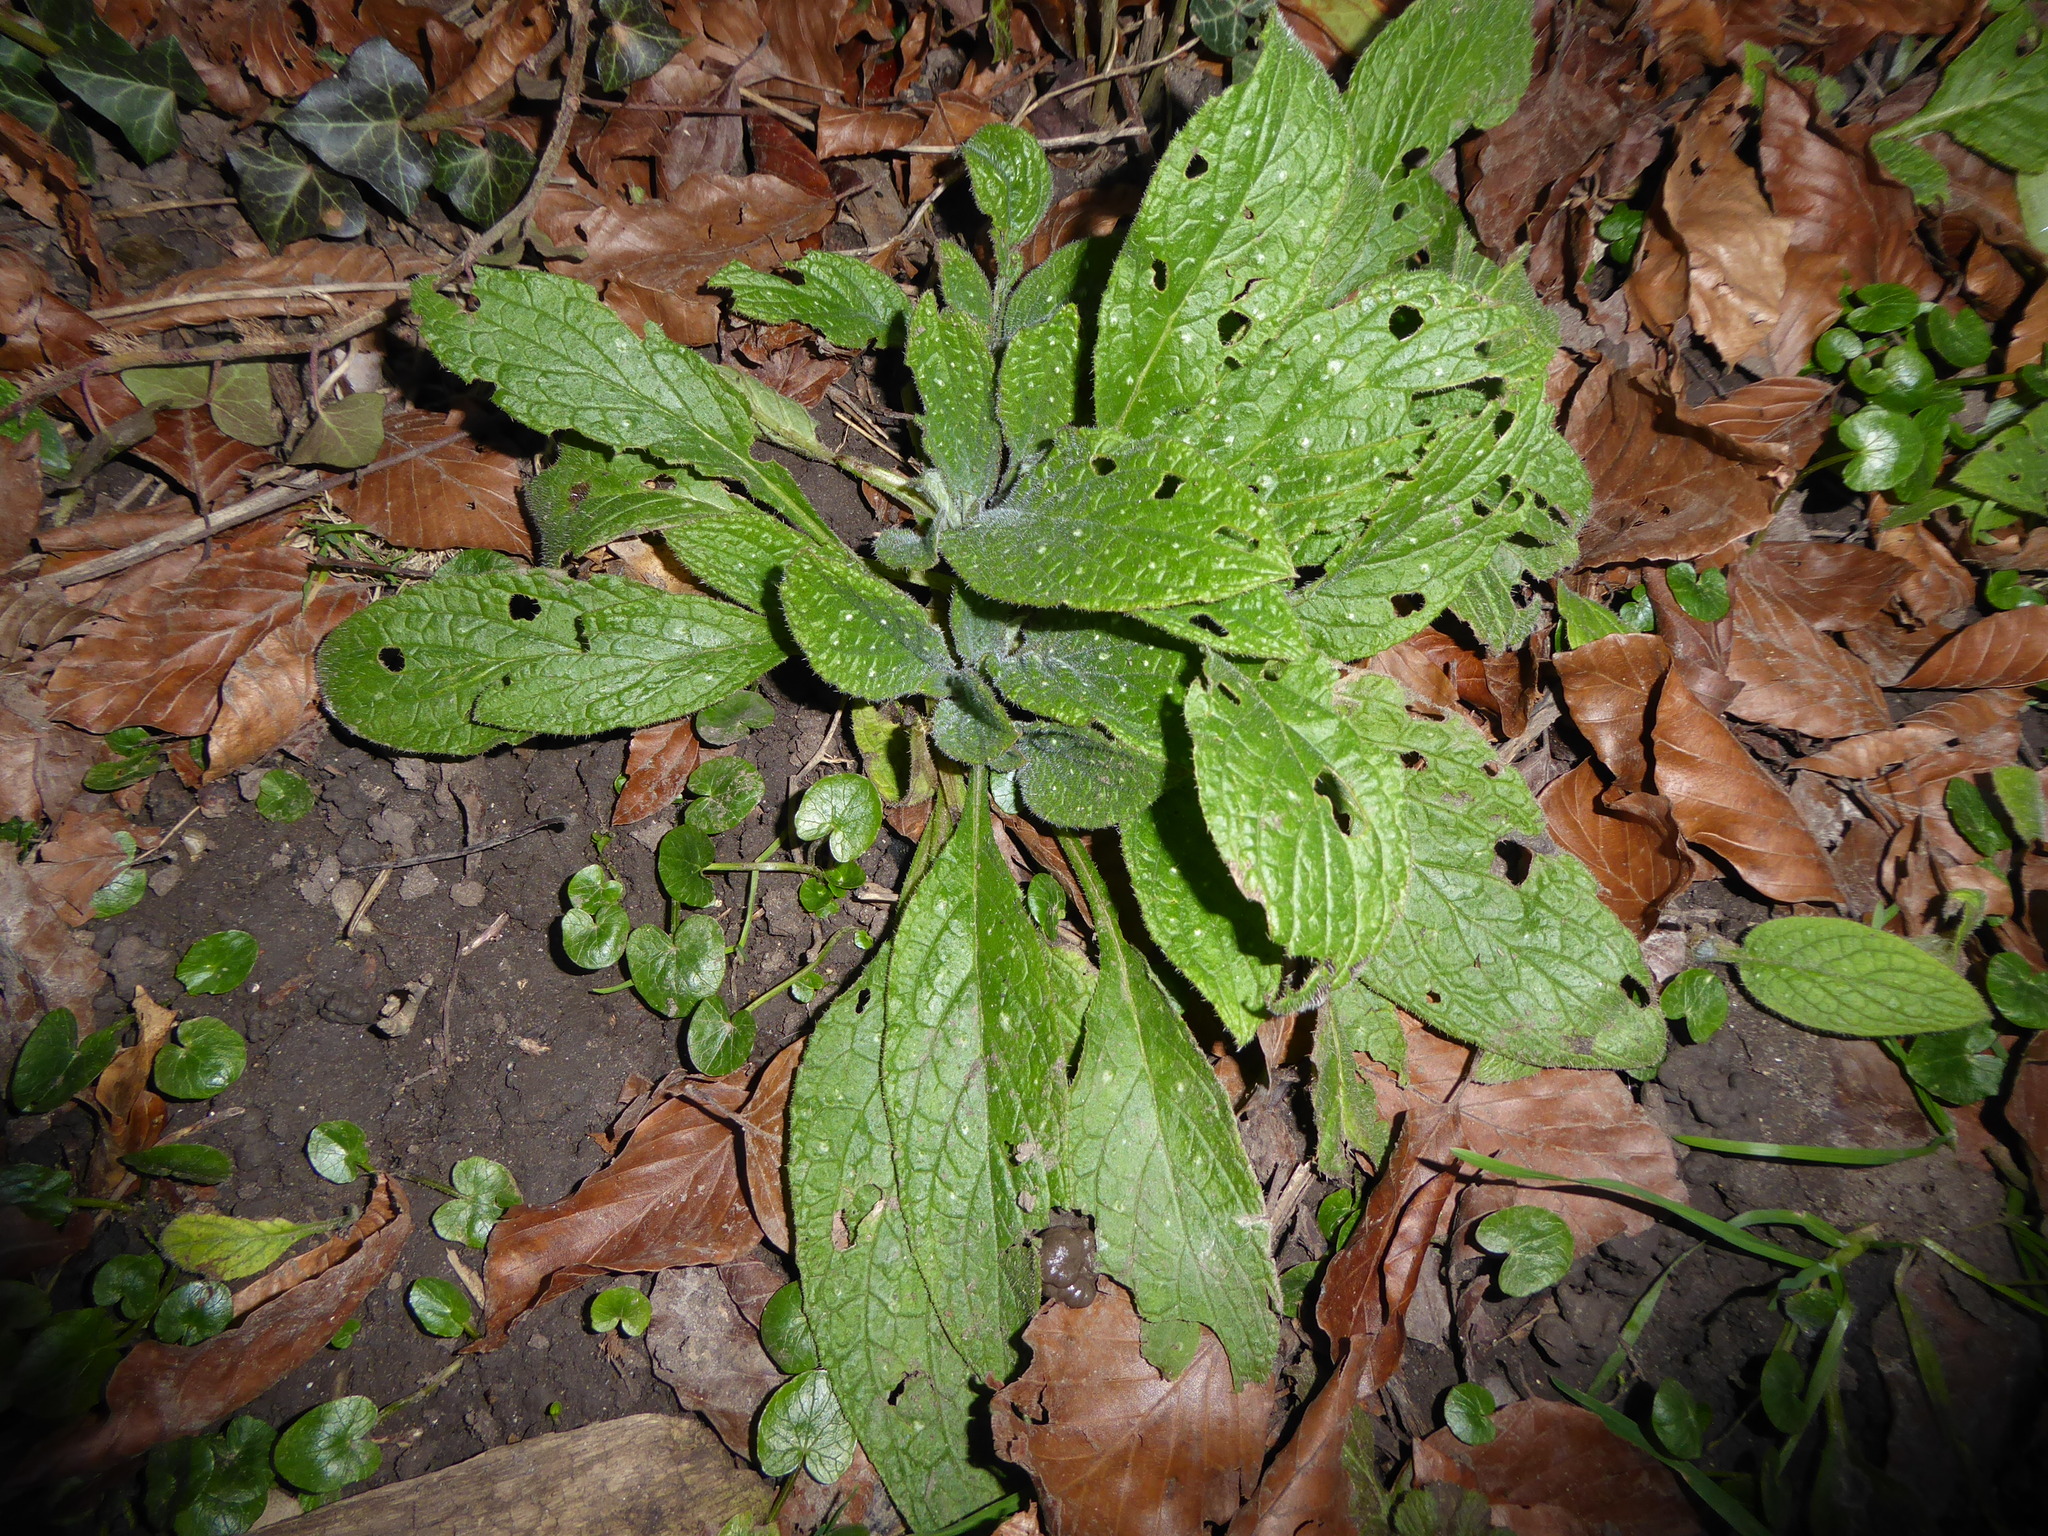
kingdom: Plantae
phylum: Tracheophyta
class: Magnoliopsida
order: Boraginales
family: Boraginaceae
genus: Pentaglottis
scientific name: Pentaglottis sempervirens
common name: Green alkanet
